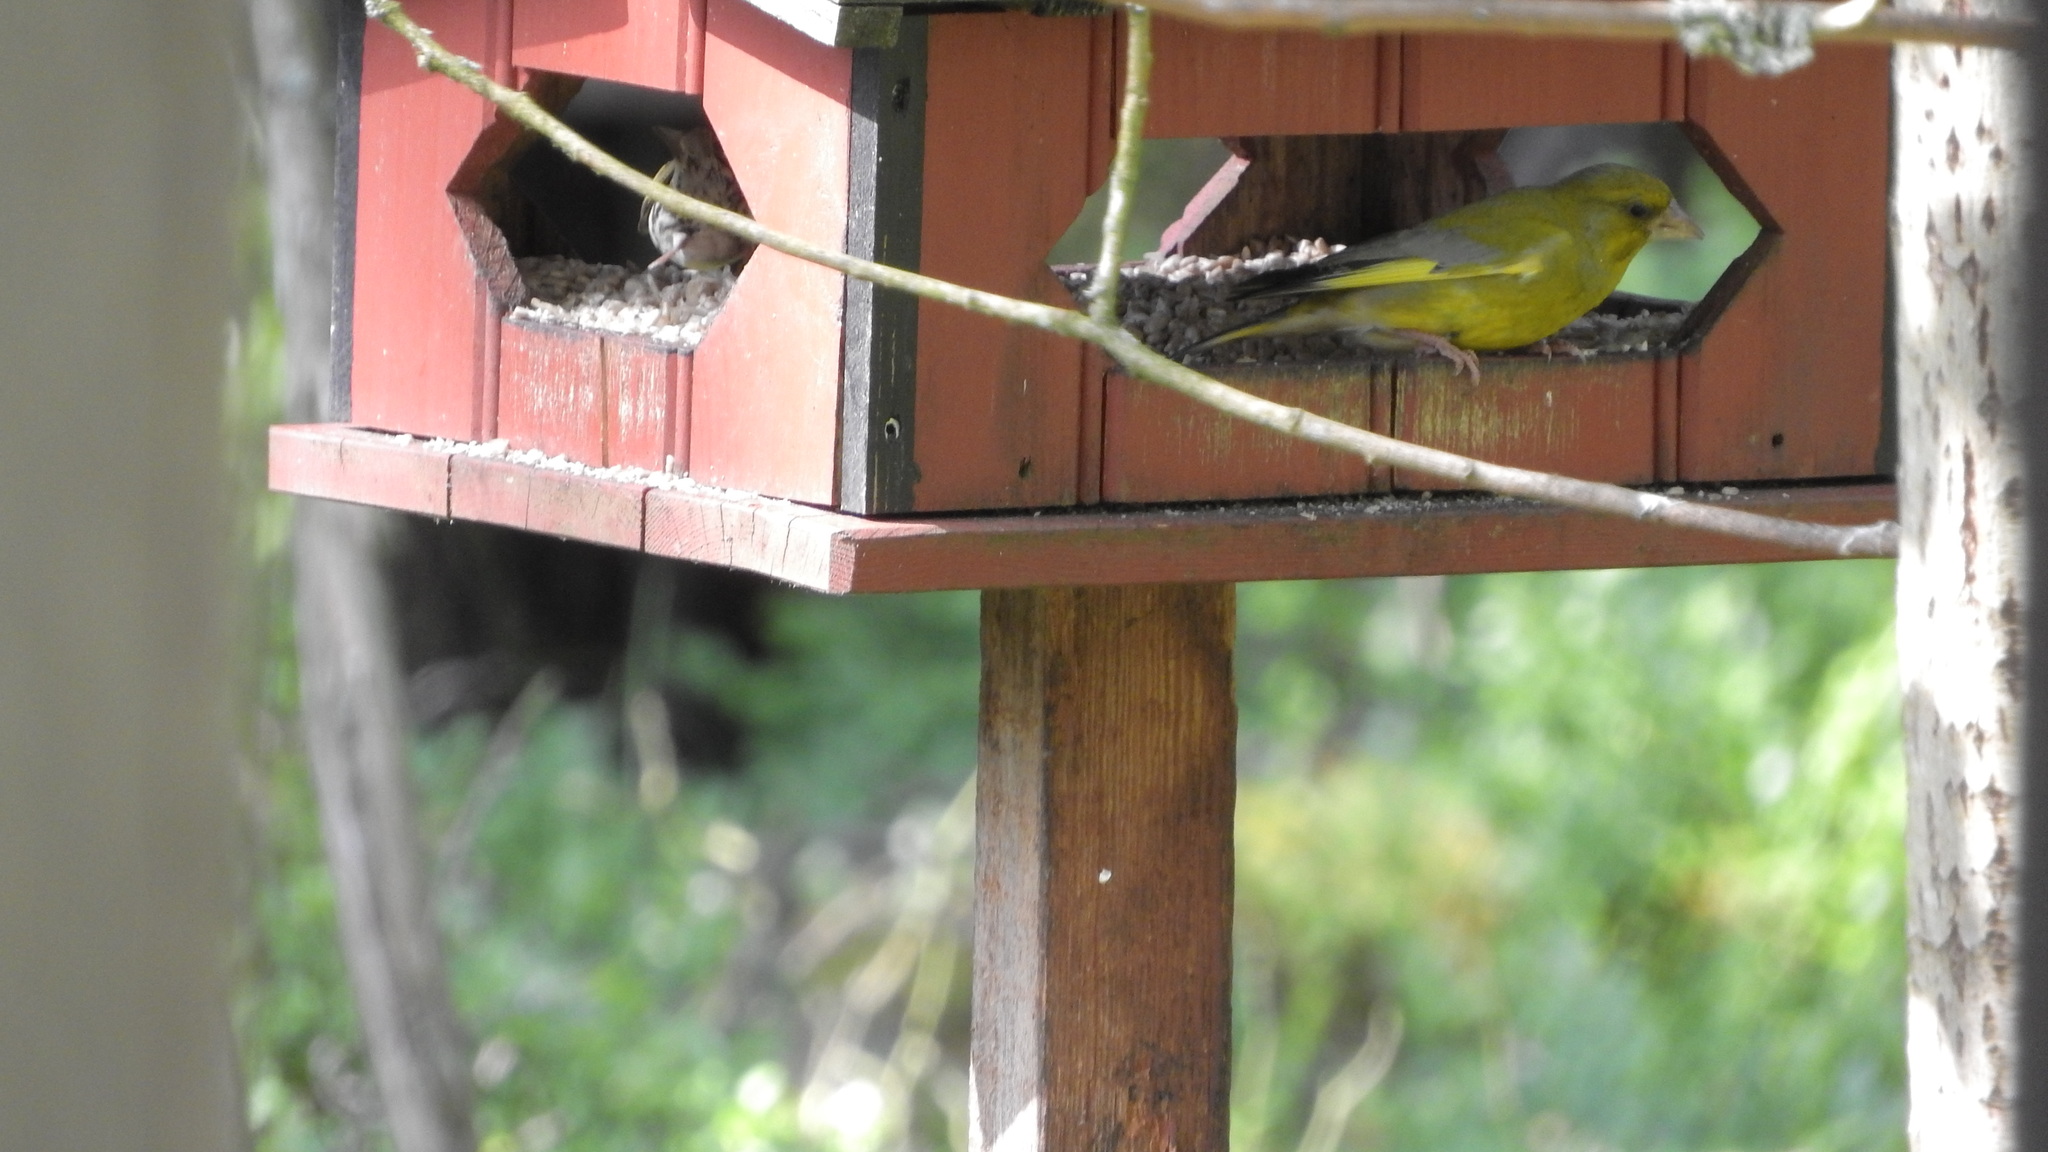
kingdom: Plantae
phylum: Tracheophyta
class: Liliopsida
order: Poales
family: Poaceae
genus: Chloris
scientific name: Chloris chloris
